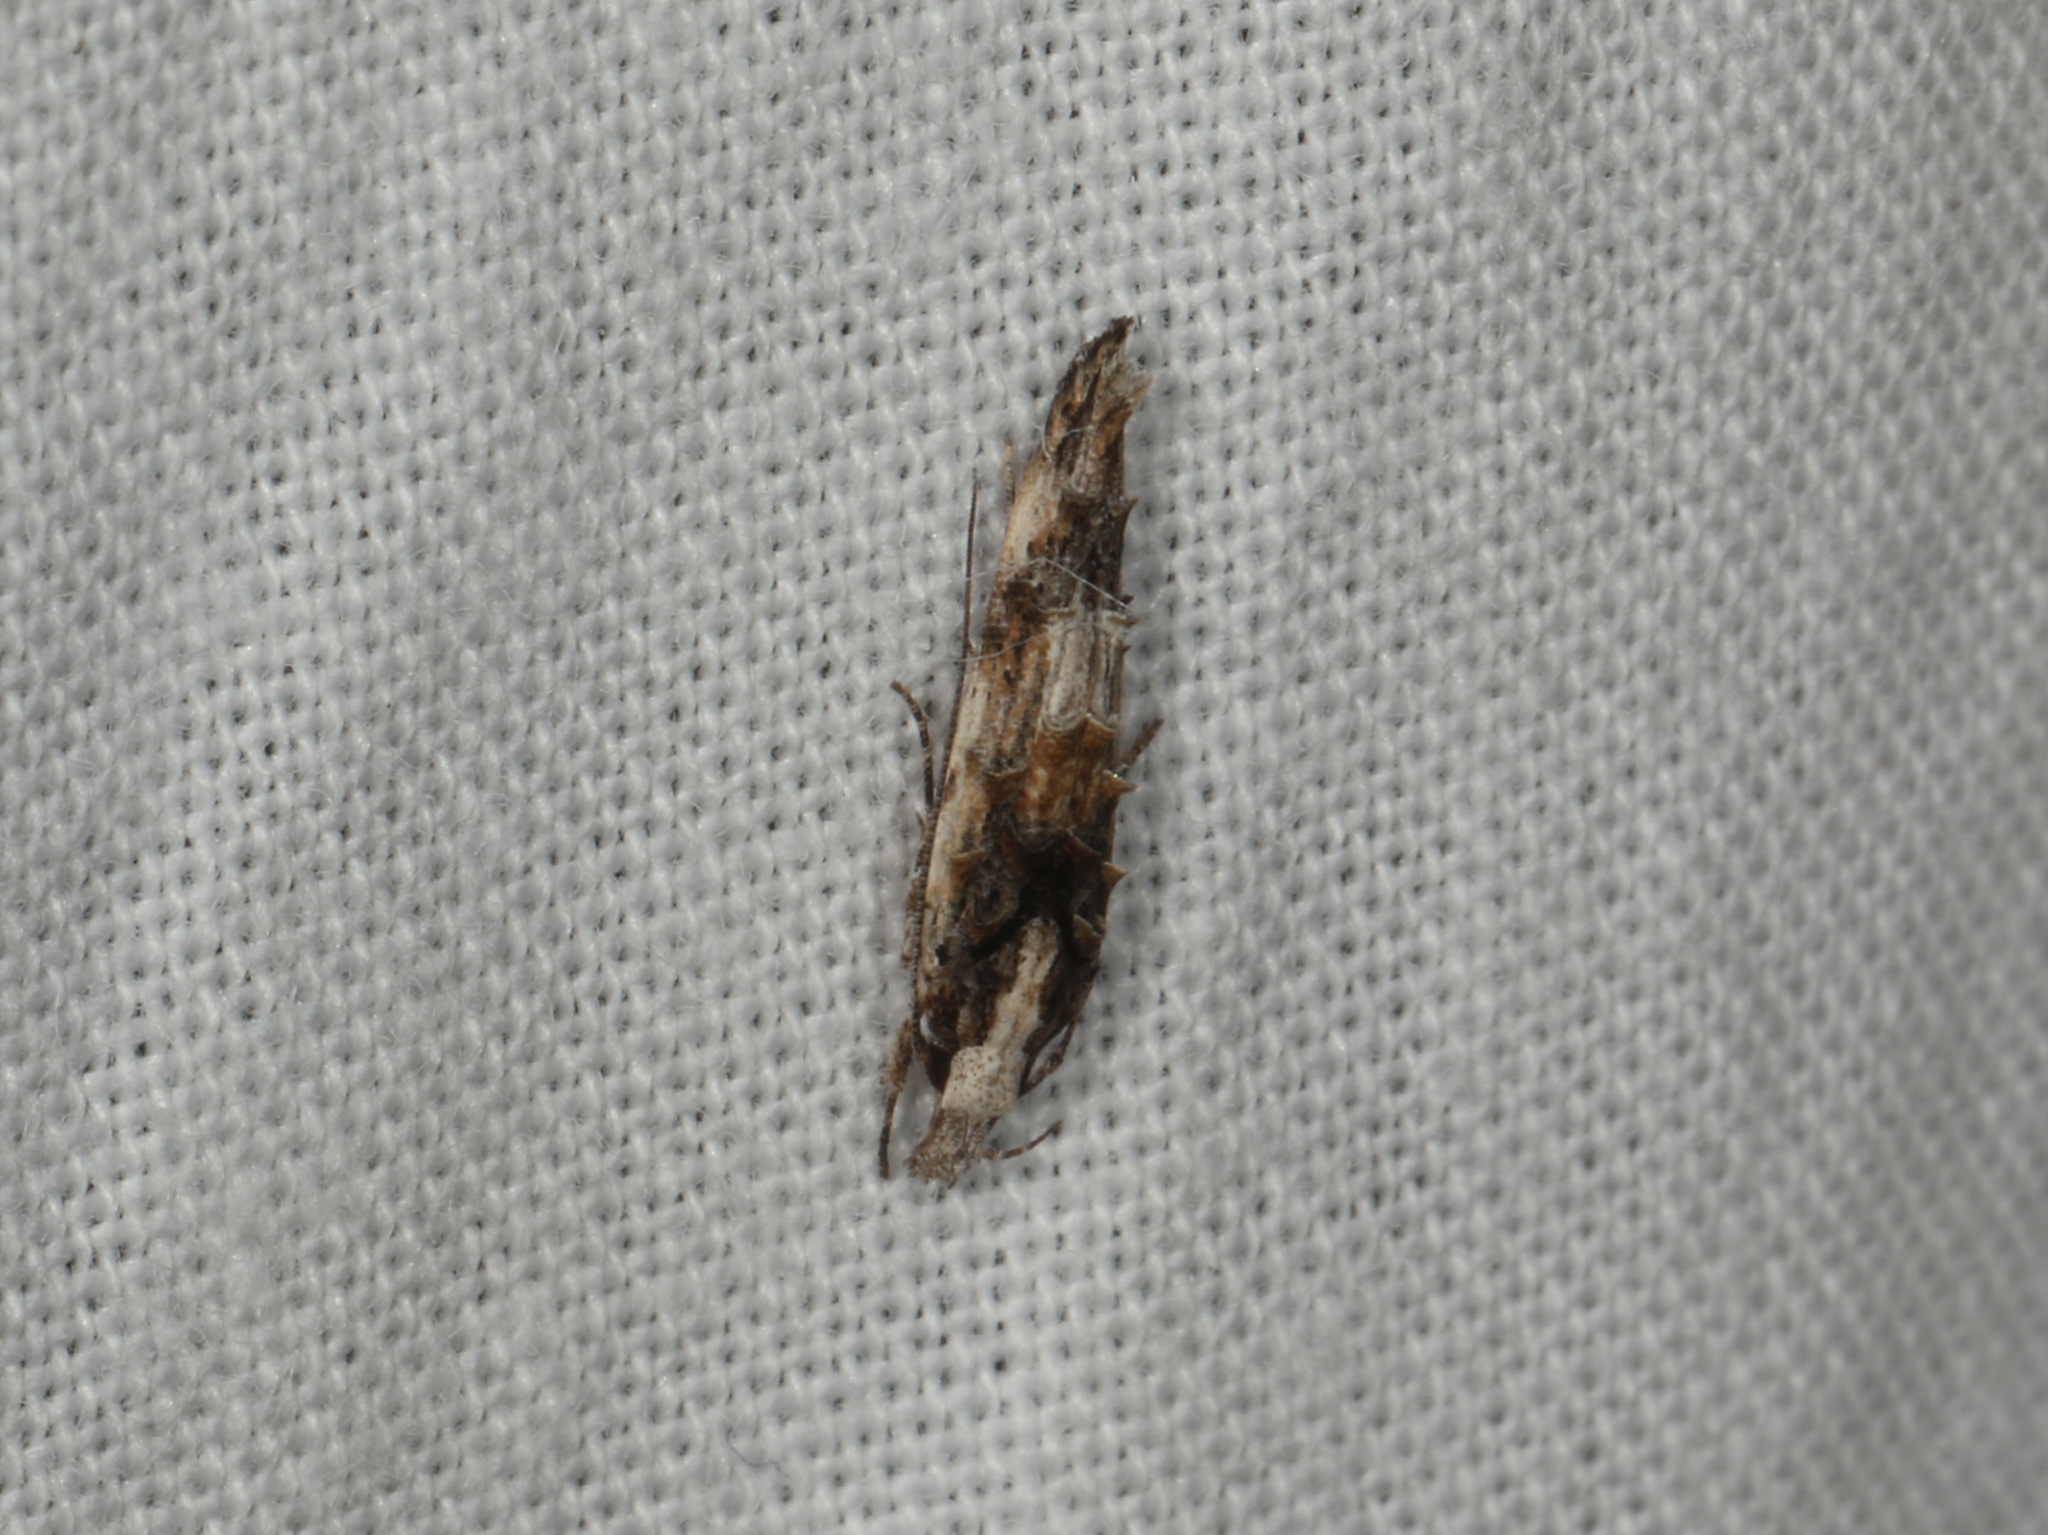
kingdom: Animalia
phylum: Arthropoda
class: Insecta
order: Lepidoptera
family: Elachistidae
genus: Trachydora
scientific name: Trachydora musaea
